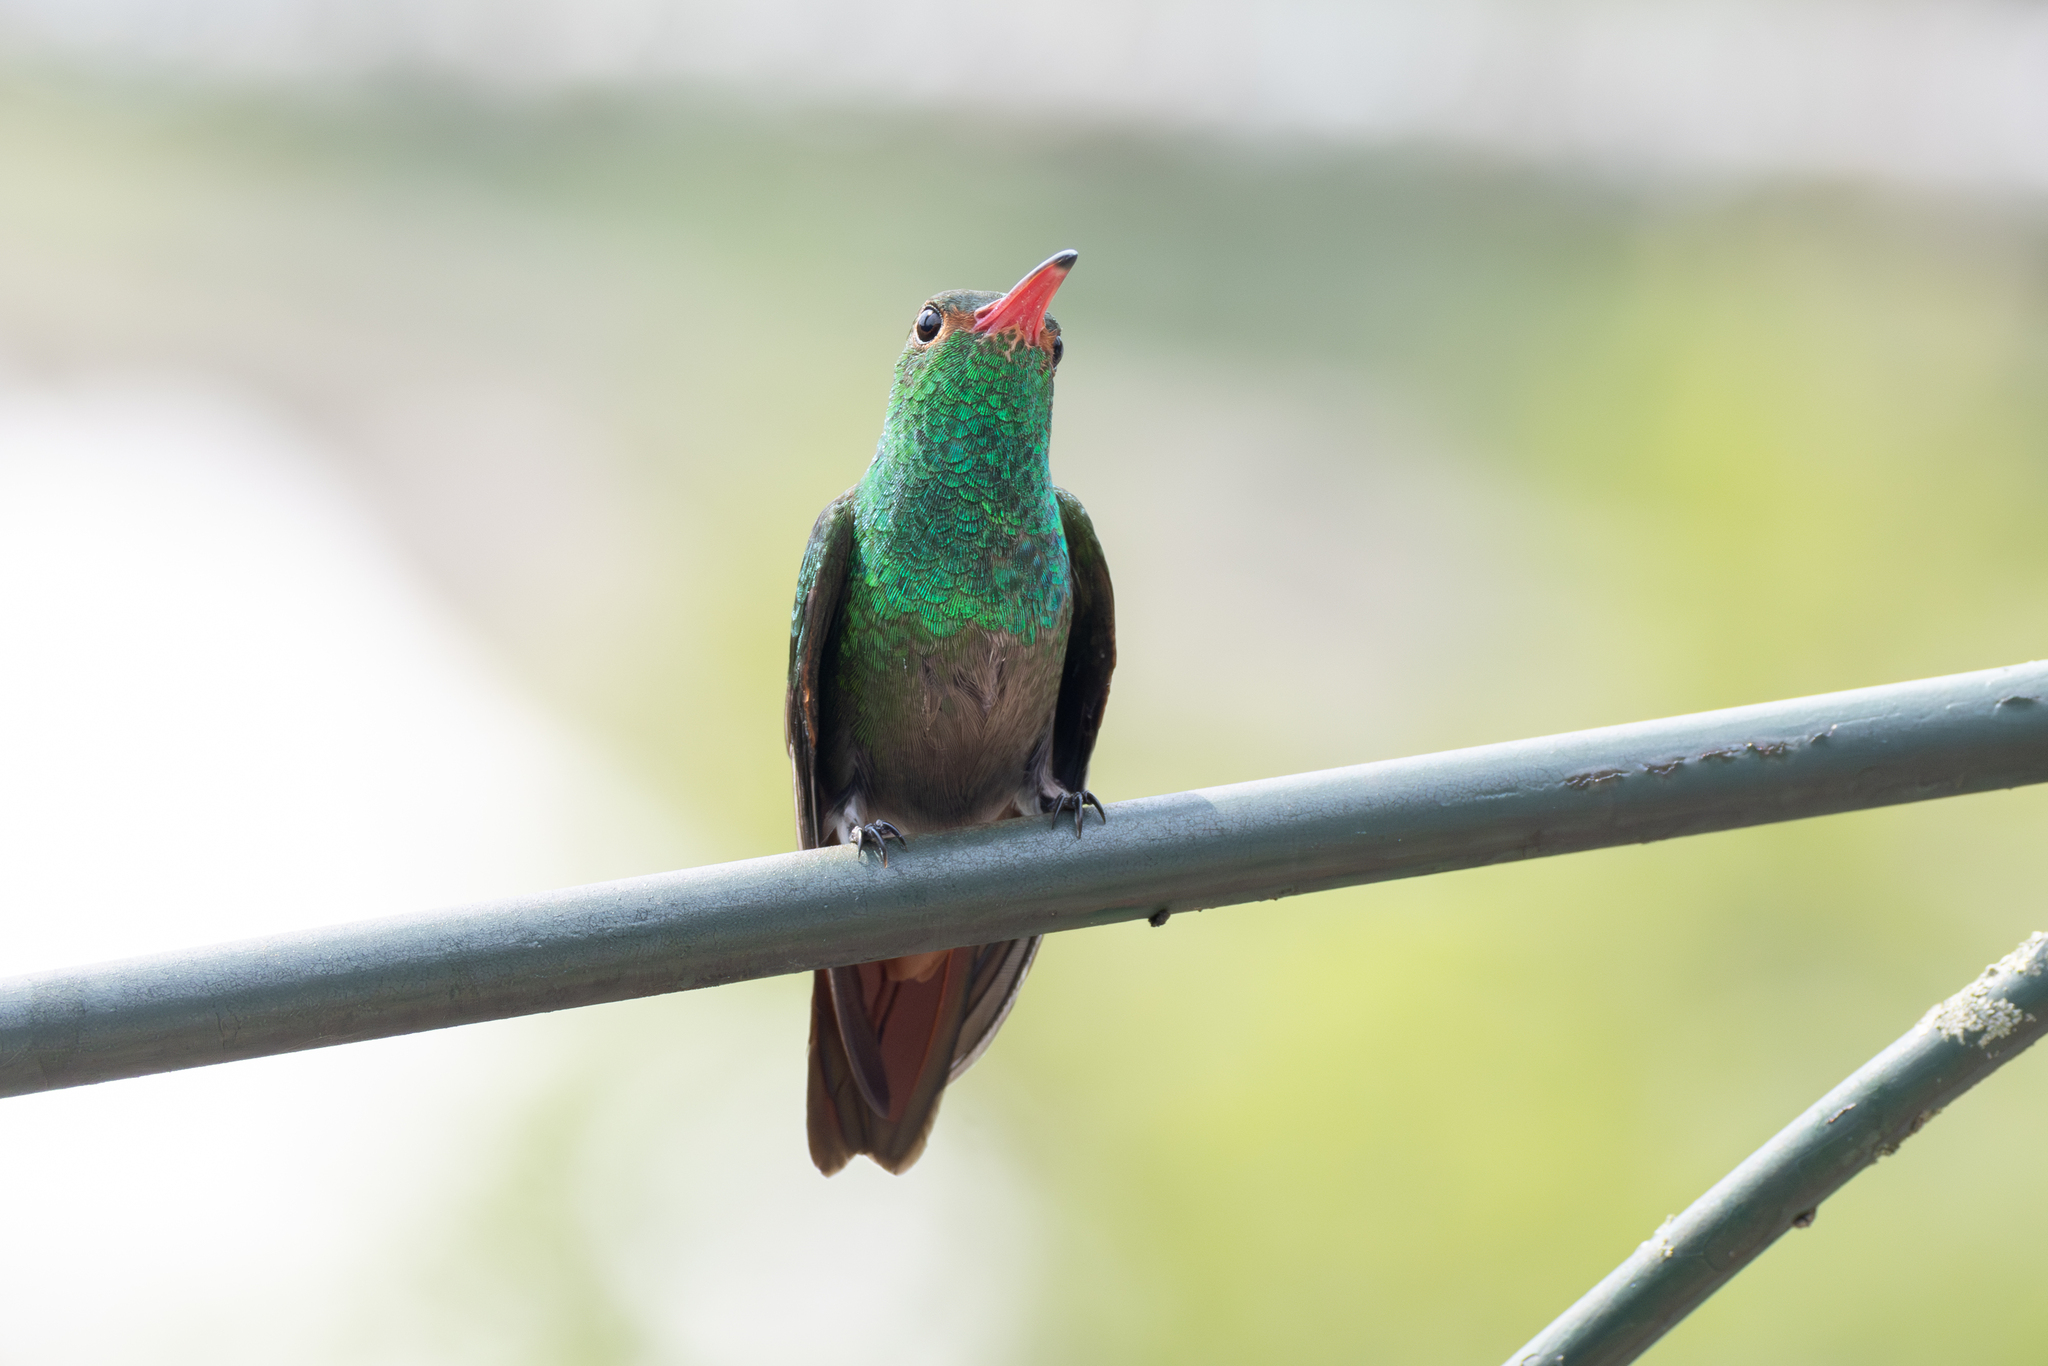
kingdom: Animalia
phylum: Chordata
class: Aves
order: Apodiformes
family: Trochilidae
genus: Amazilia
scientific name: Amazilia tzacatl
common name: Rufous-tailed hummingbird
